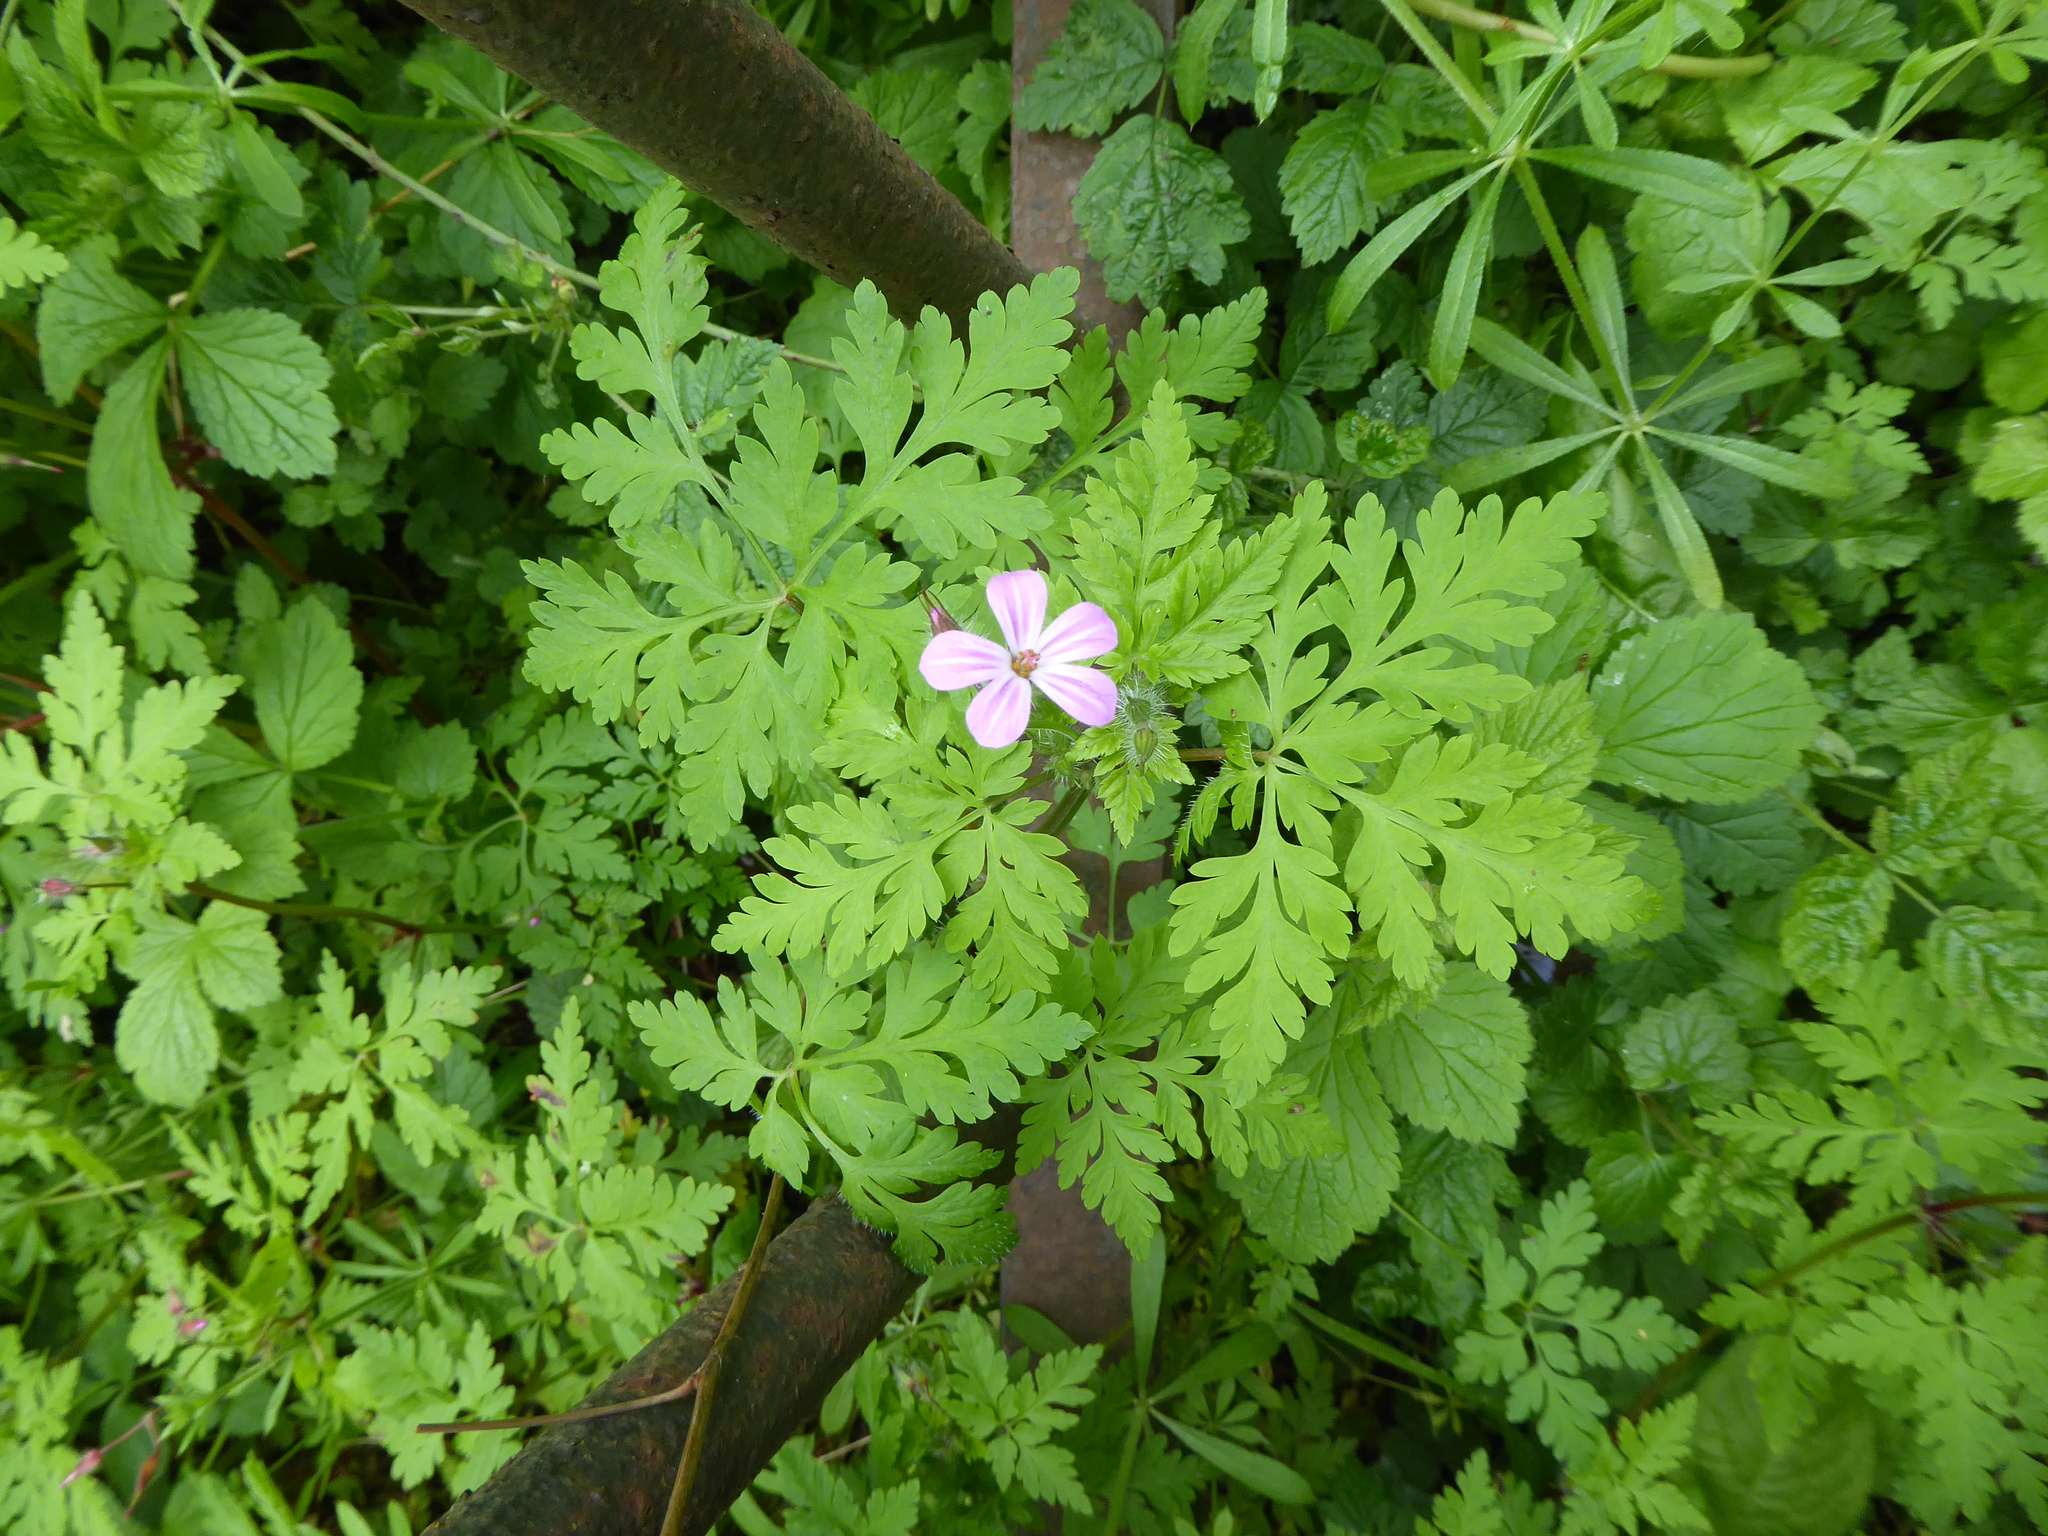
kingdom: Plantae
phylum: Tracheophyta
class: Magnoliopsida
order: Geraniales
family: Geraniaceae
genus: Geranium
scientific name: Geranium robertianum
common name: Herb-robert
